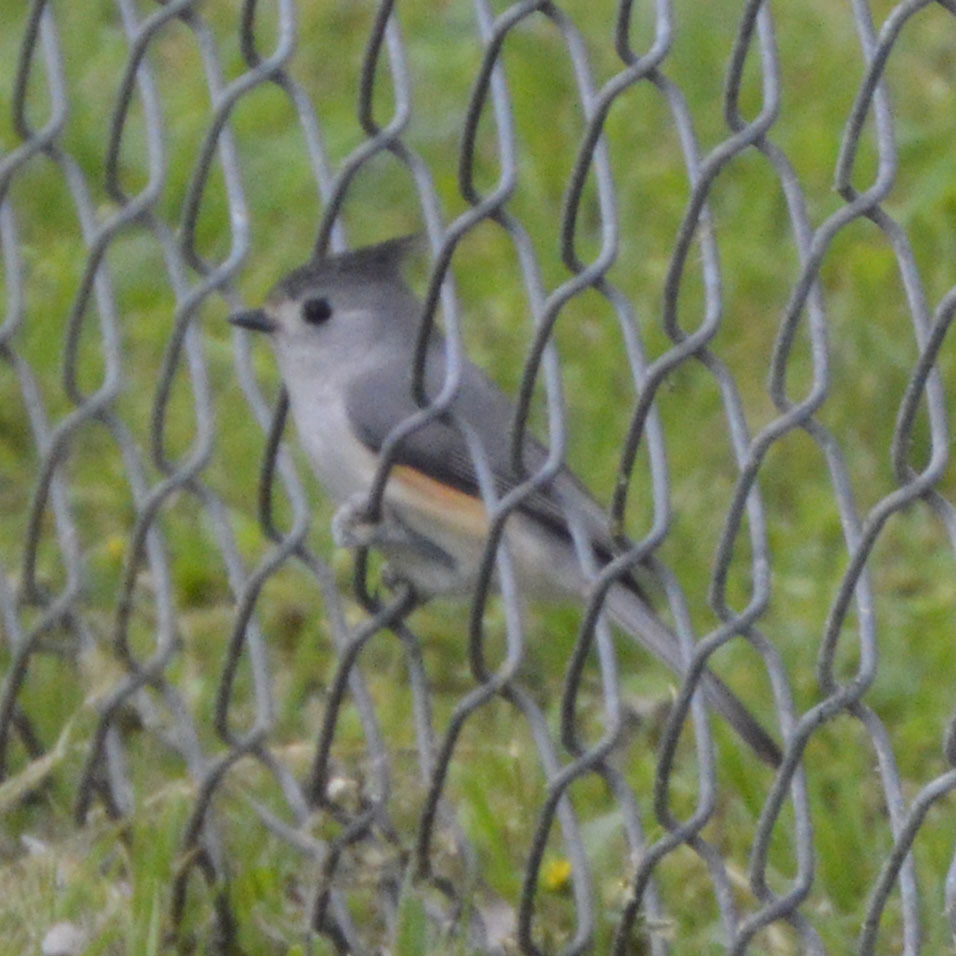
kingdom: Animalia
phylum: Chordata
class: Aves
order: Passeriformes
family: Paridae
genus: Baeolophus
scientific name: Baeolophus atricristatus
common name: Black-crested titmouse
